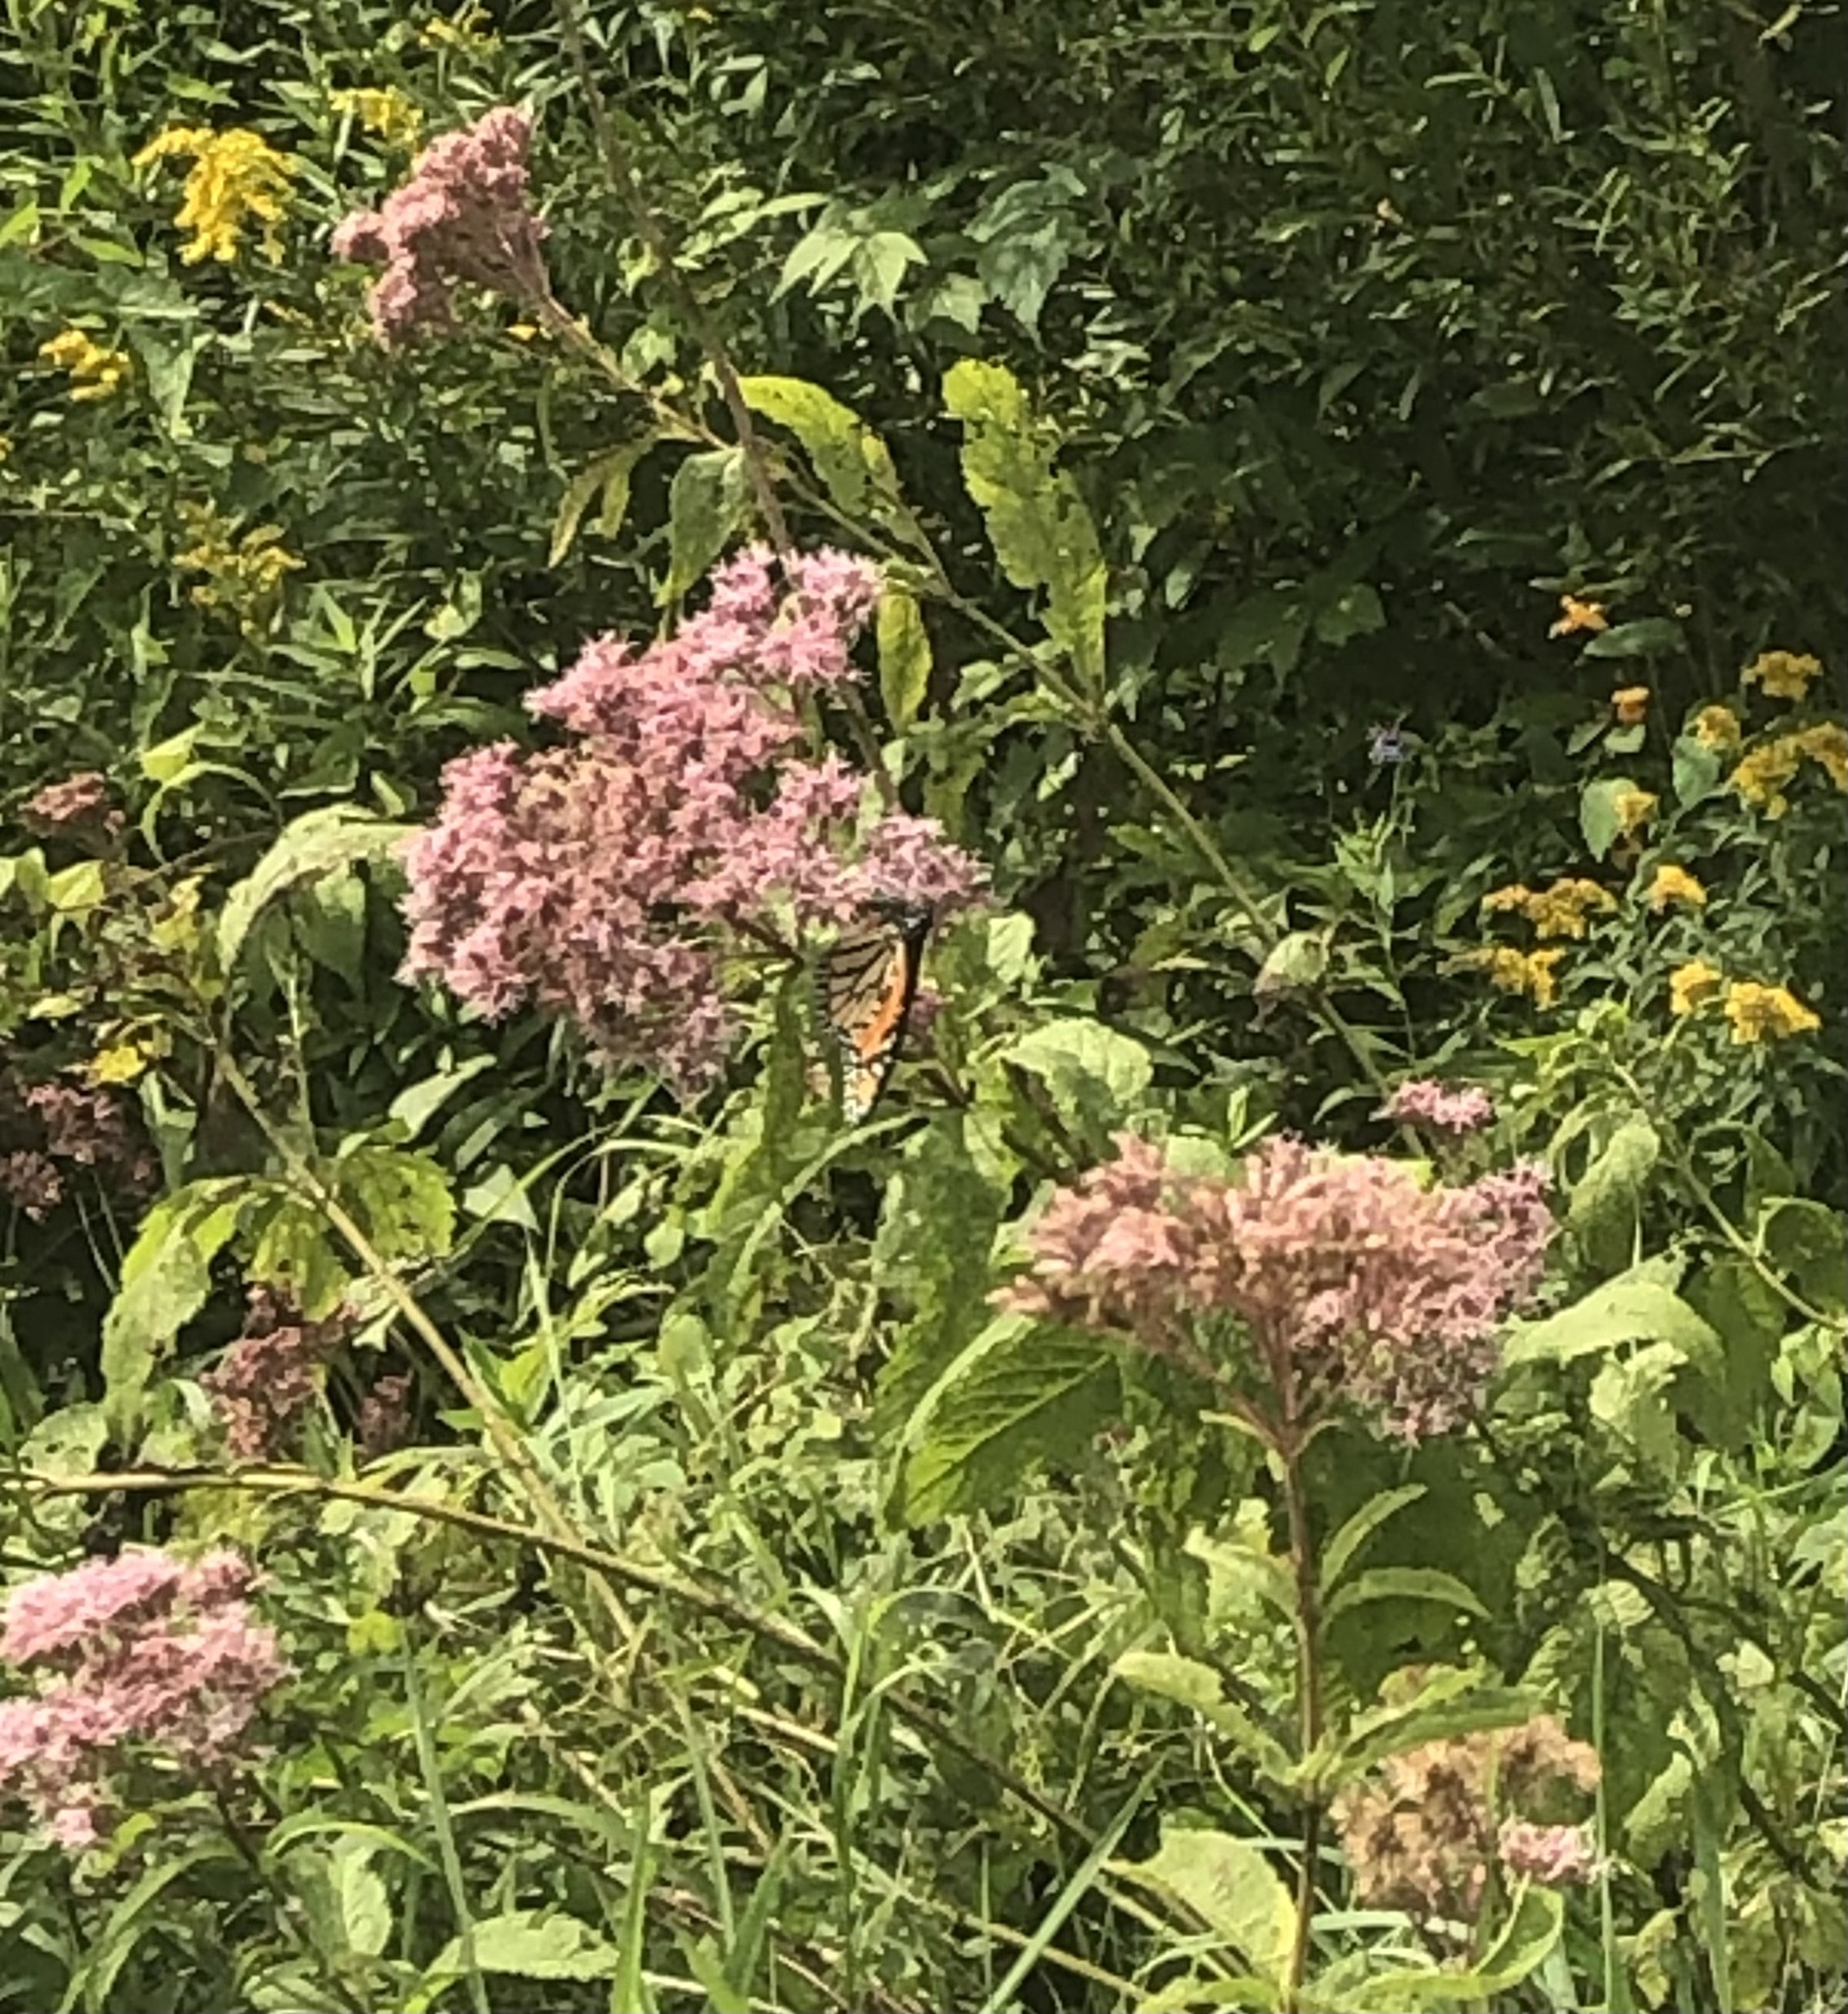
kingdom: Animalia
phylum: Arthropoda
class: Insecta
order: Lepidoptera
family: Nymphalidae
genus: Danaus
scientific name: Danaus plexippus
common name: Monarch
